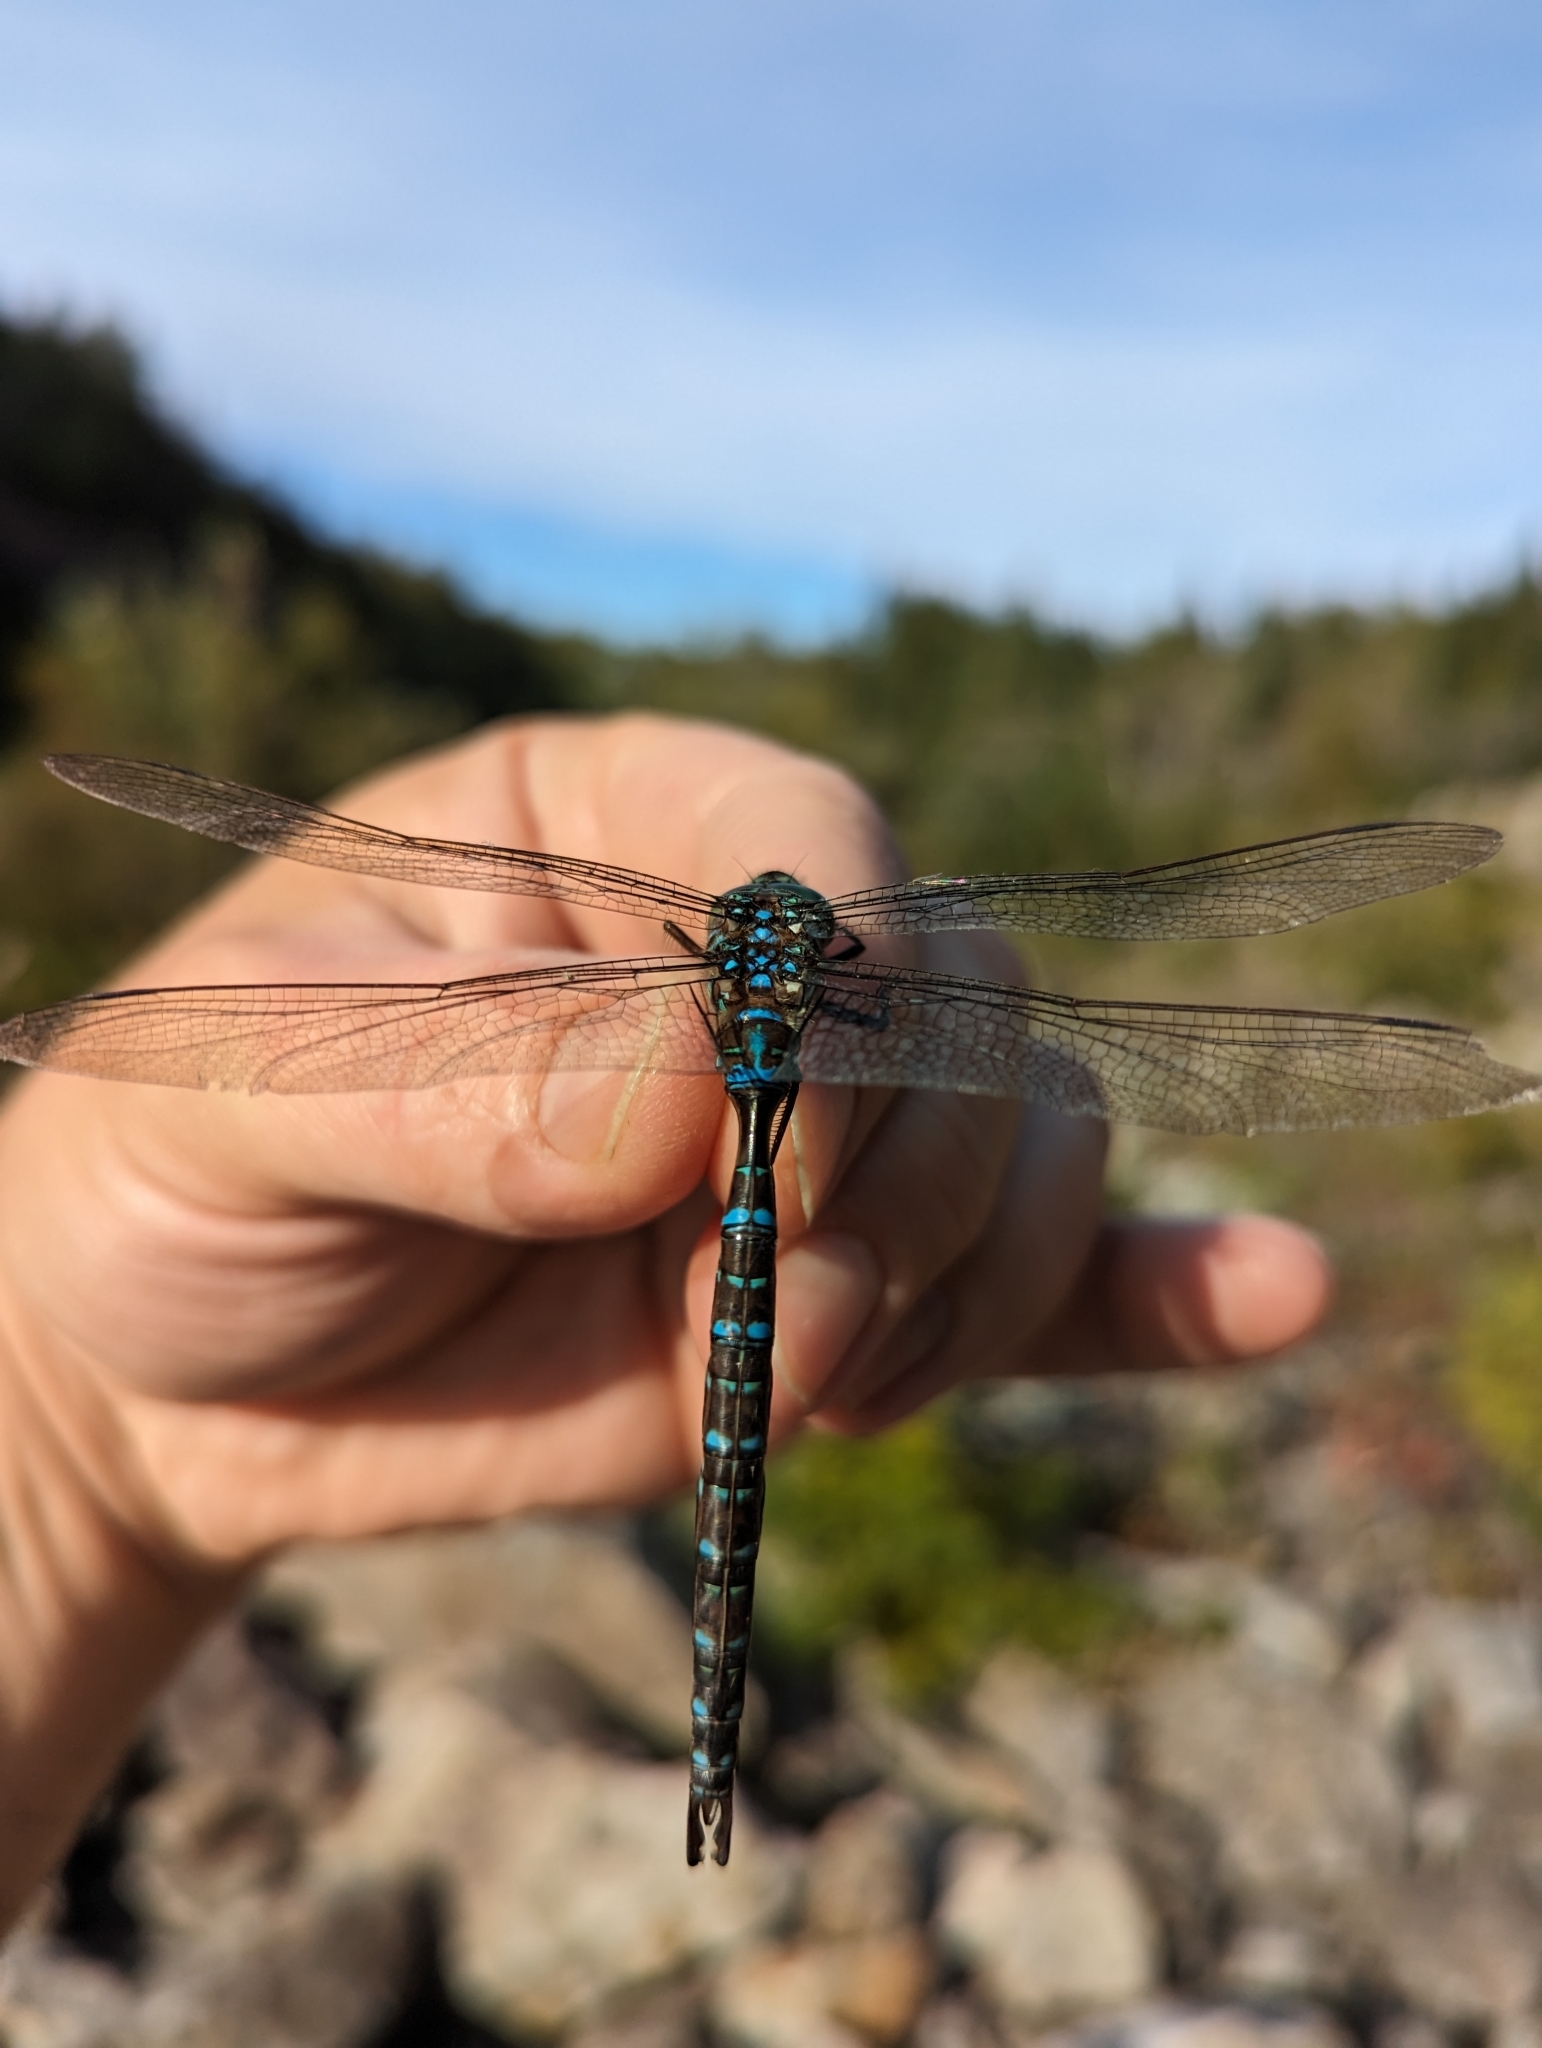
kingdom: Animalia
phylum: Arthropoda
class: Insecta
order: Odonata
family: Aeshnidae
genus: Aeshna
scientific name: Aeshna umbrosa
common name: Shadow darner
